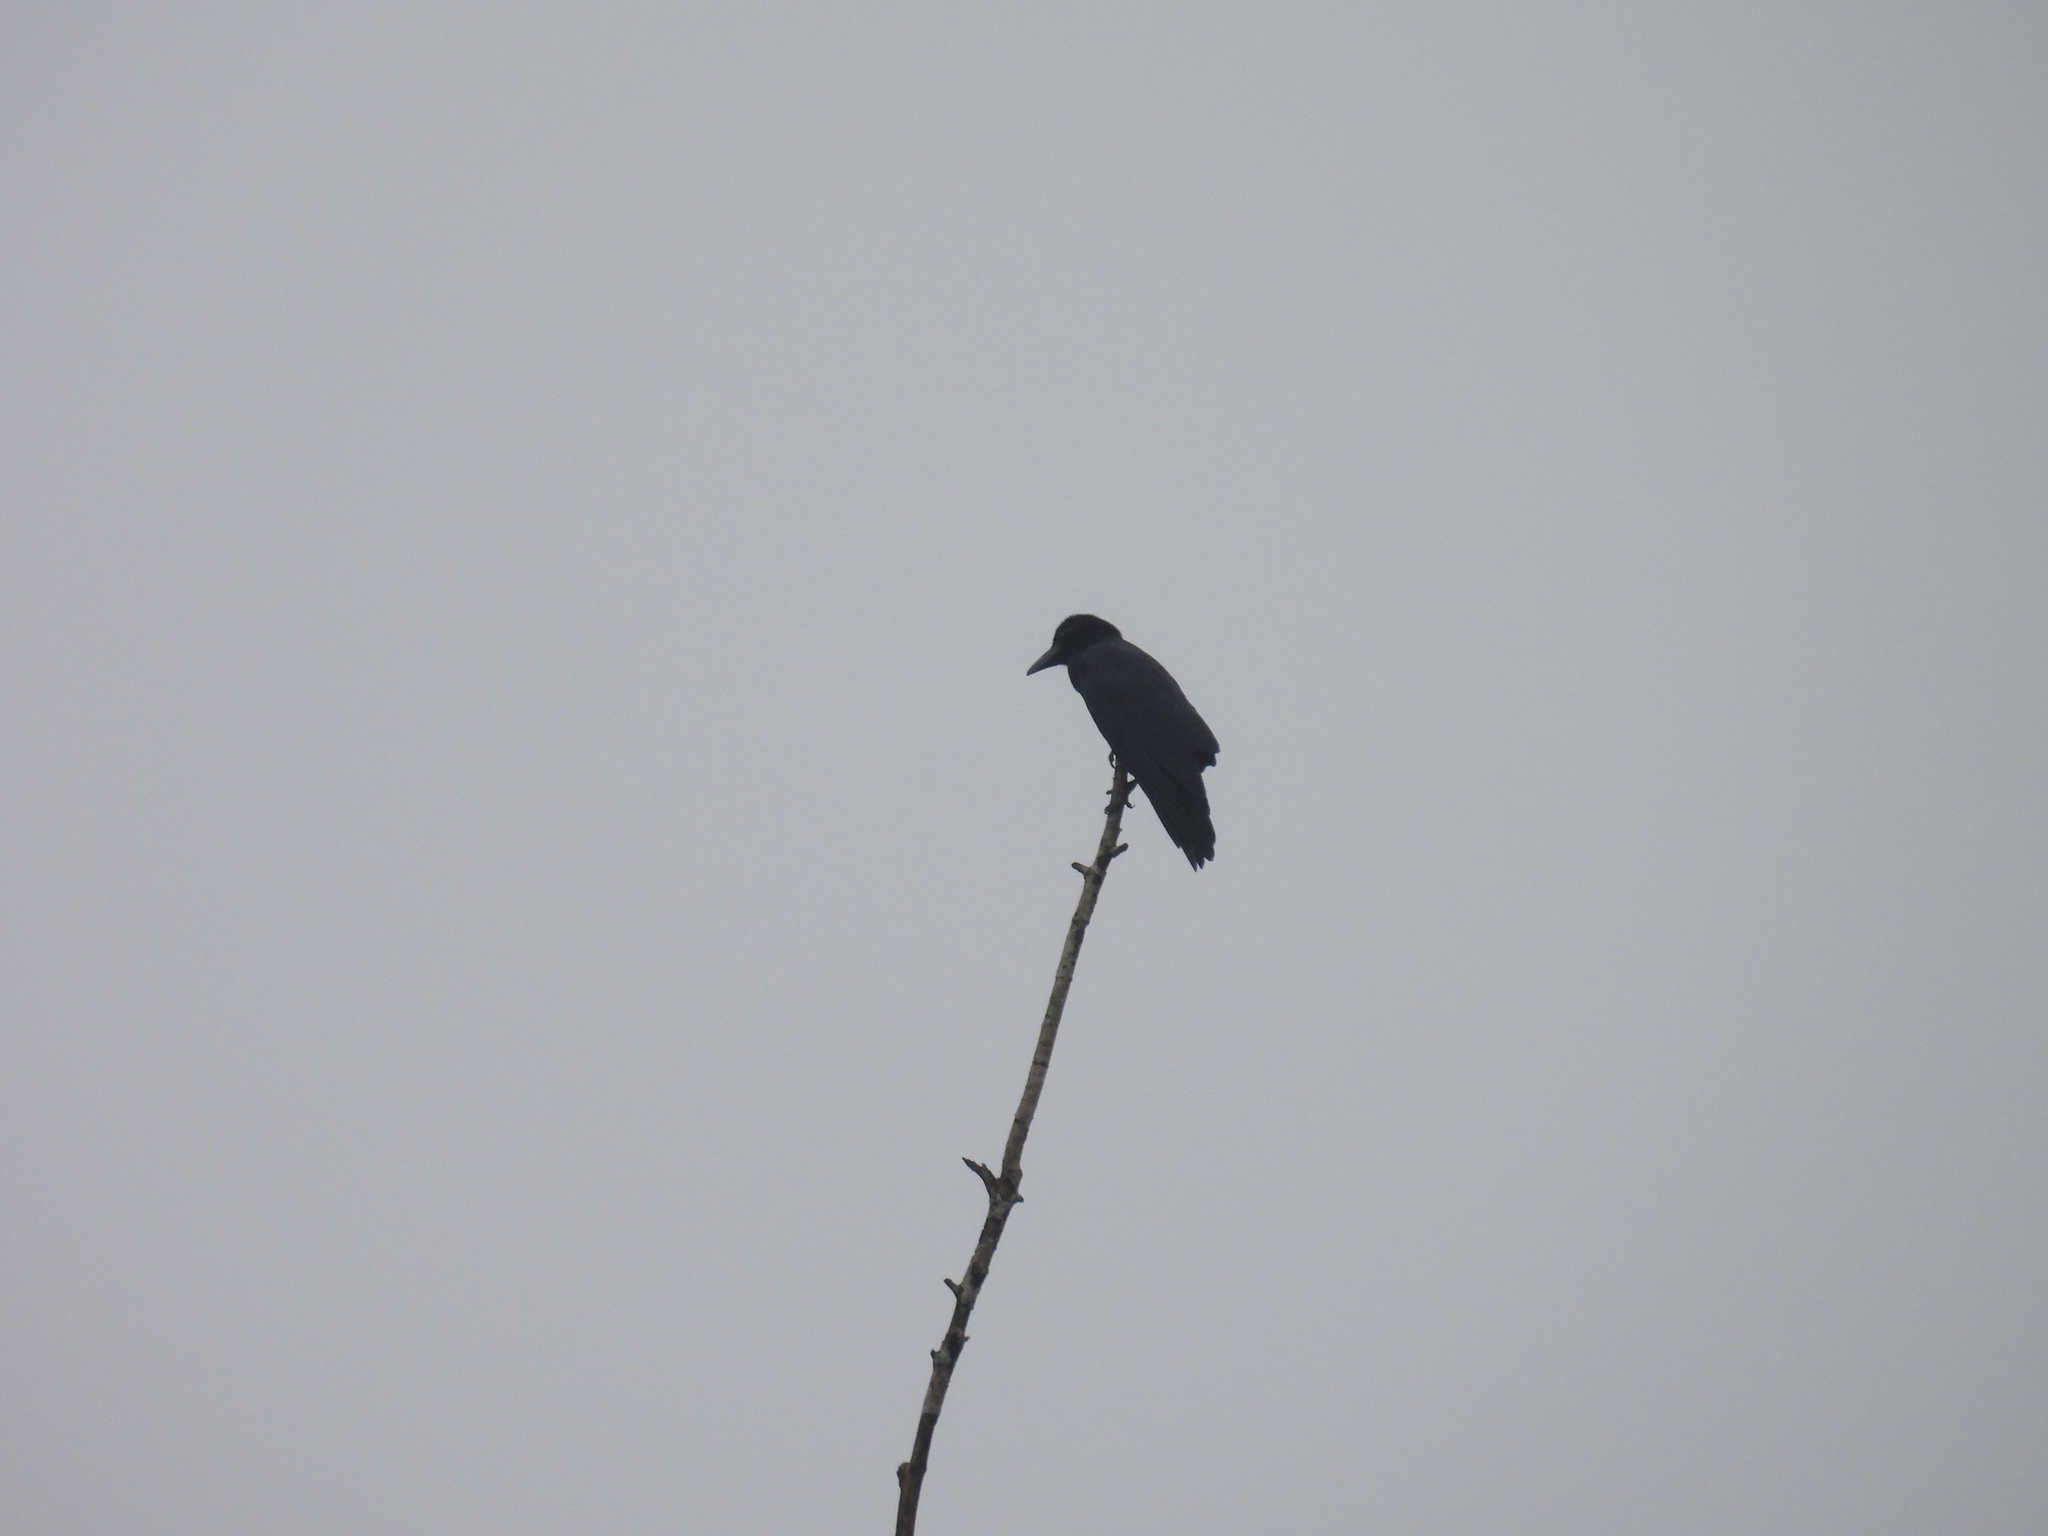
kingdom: Animalia
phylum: Chordata
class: Aves
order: Passeriformes
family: Corvidae
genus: Corvus
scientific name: Corvus macrorhynchos
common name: Large-billed crow
